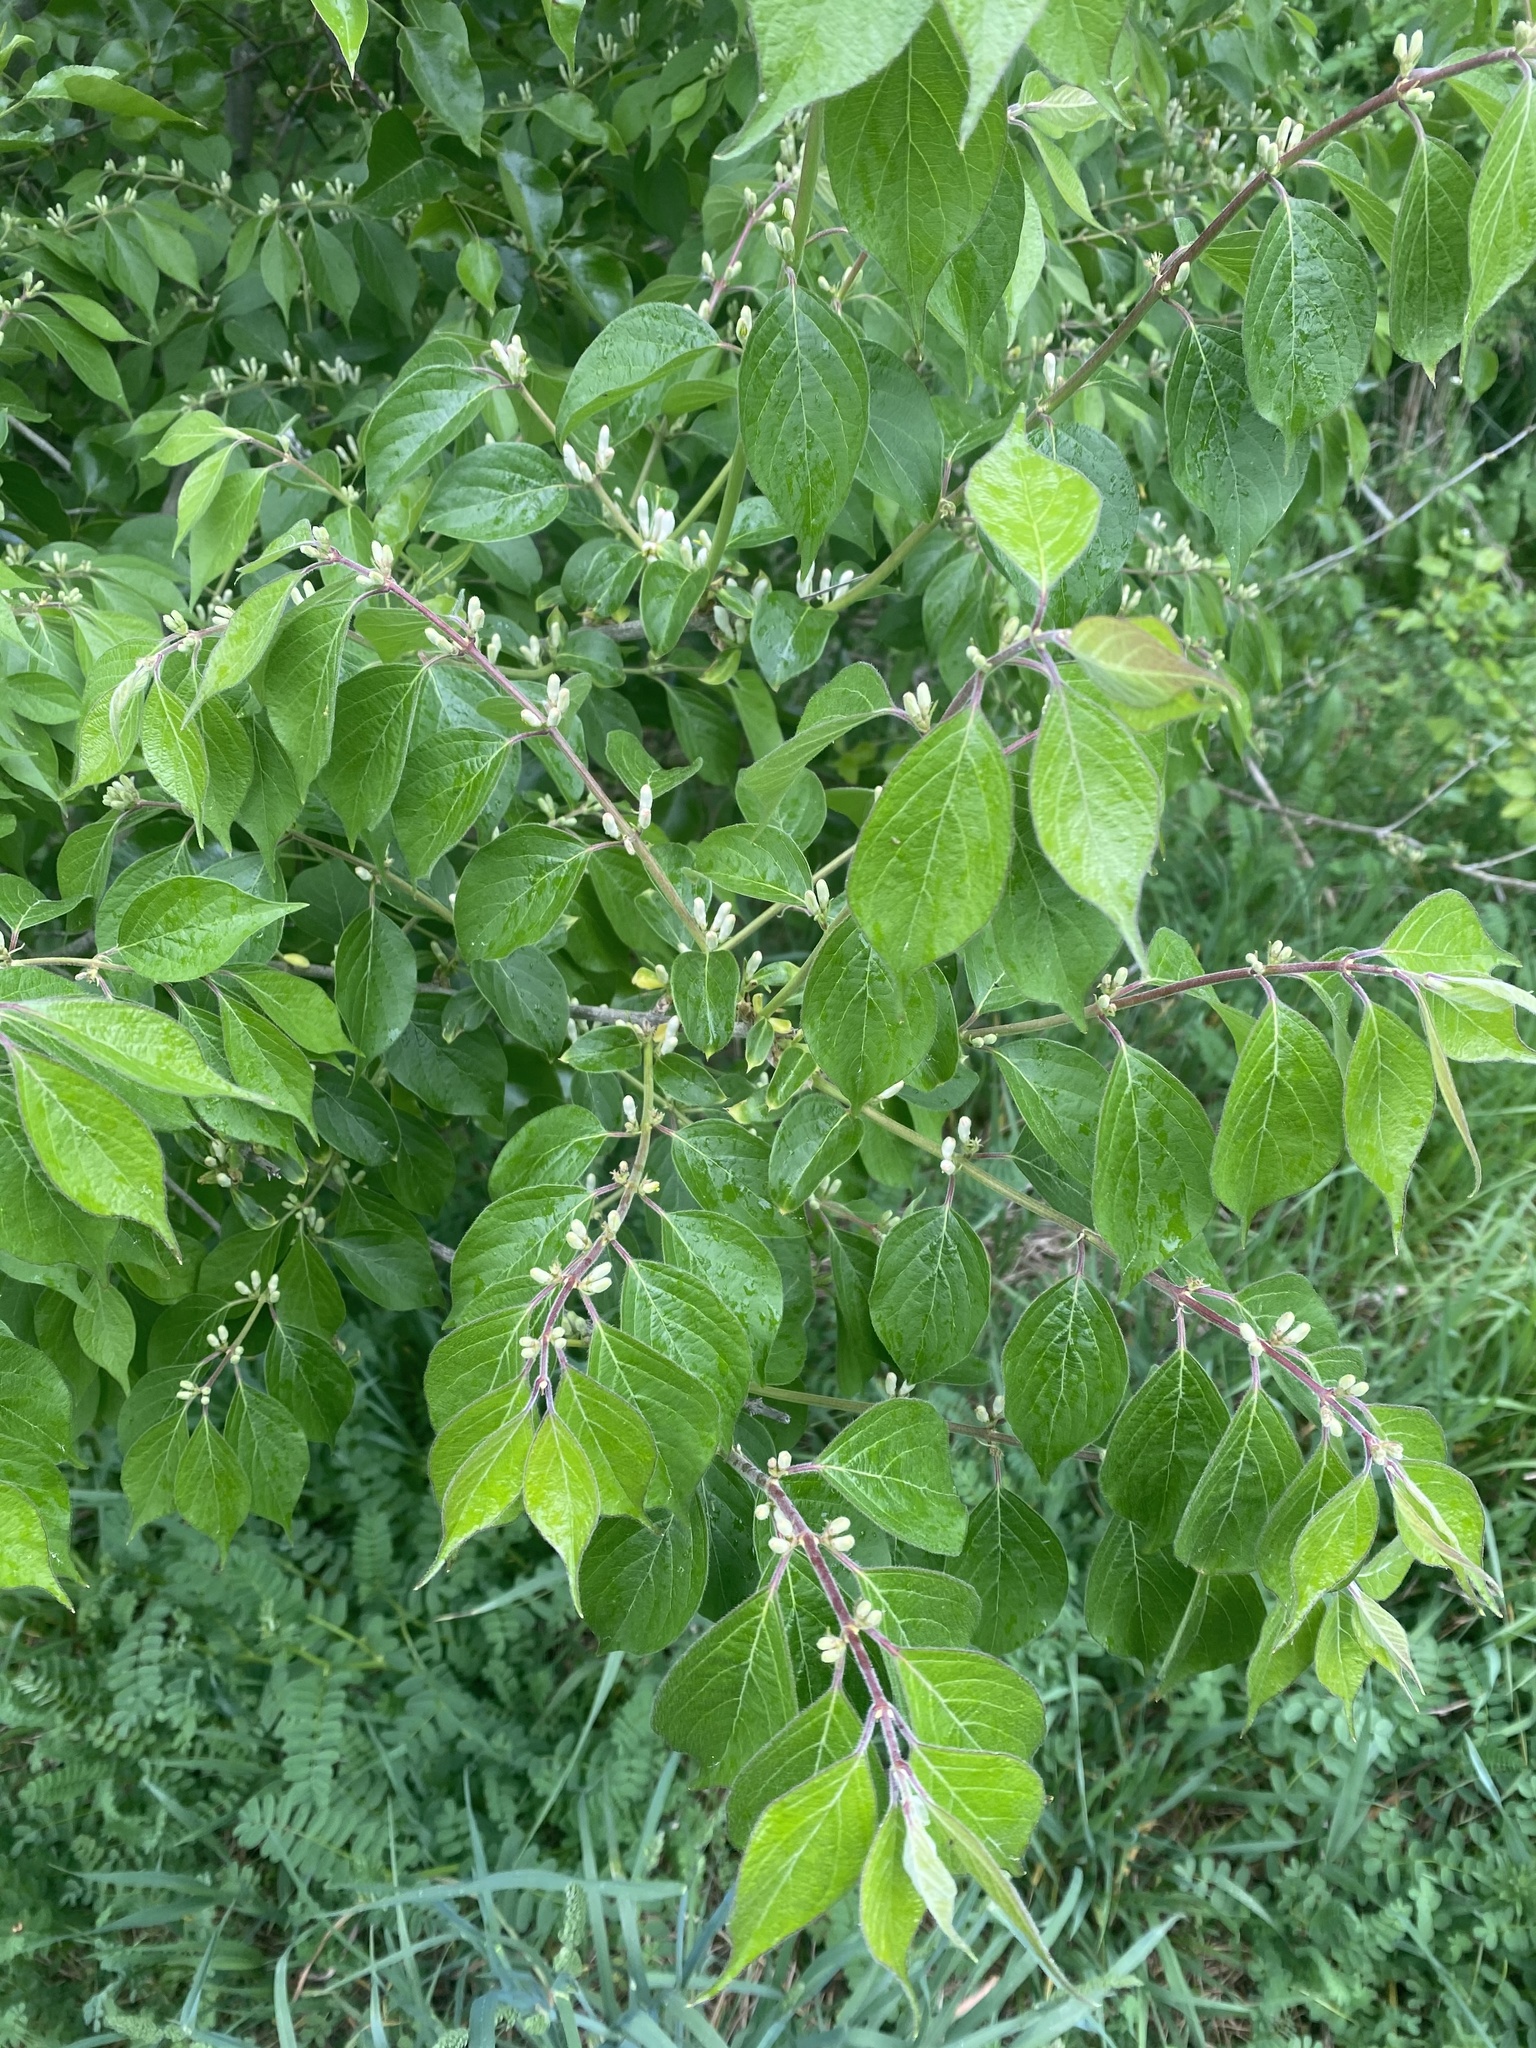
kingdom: Plantae
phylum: Tracheophyta
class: Magnoliopsida
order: Dipsacales
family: Caprifoliaceae
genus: Lonicera
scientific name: Lonicera maackii
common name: Amur honeysuckle
